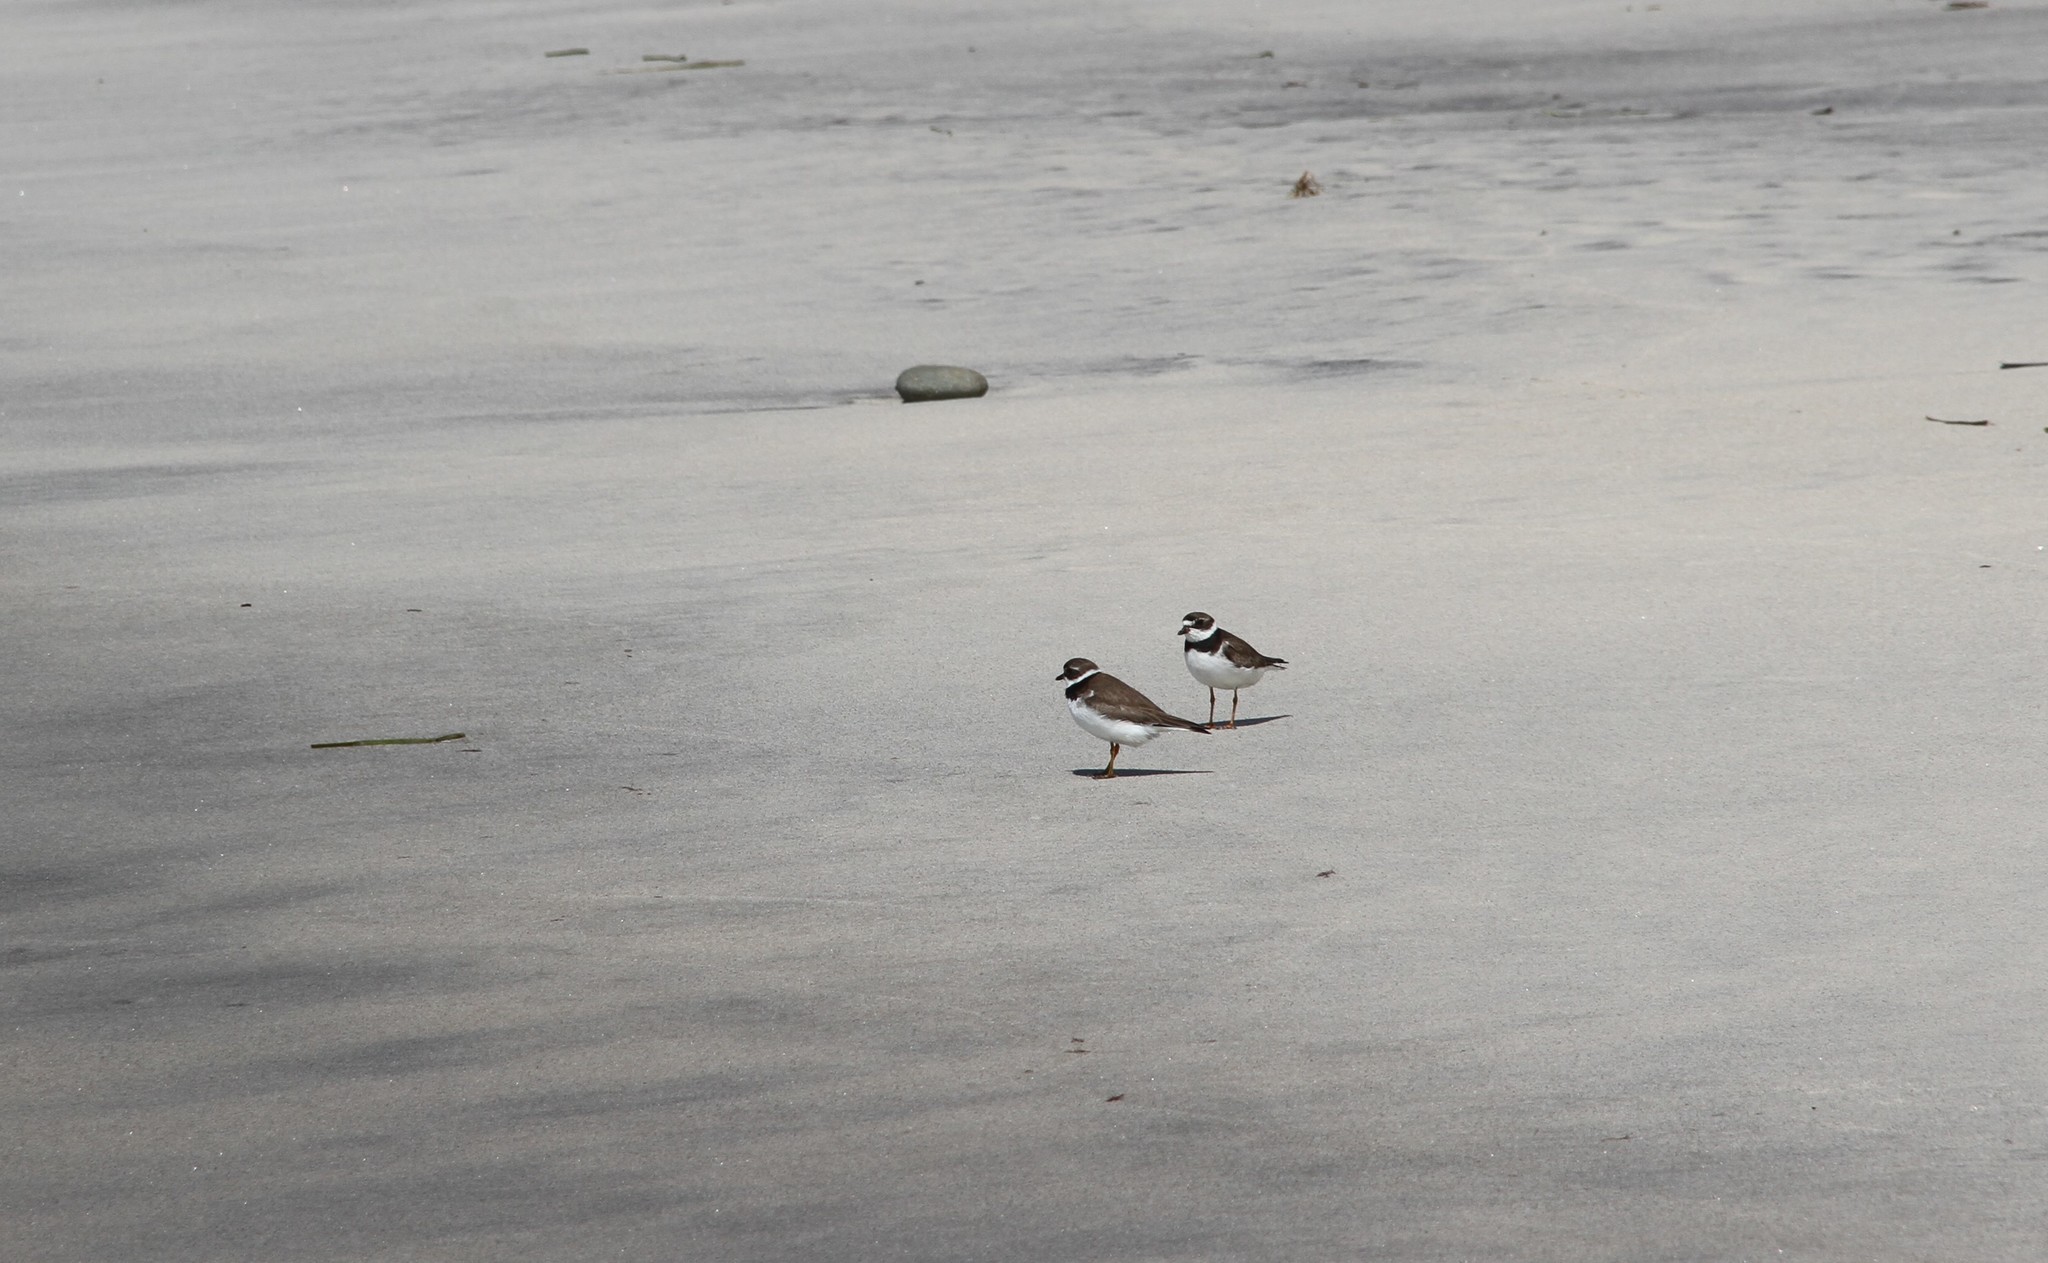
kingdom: Animalia
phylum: Chordata
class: Aves
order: Charadriiformes
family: Charadriidae
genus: Charadrius
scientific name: Charadrius semipalmatus
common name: Semipalmated plover
